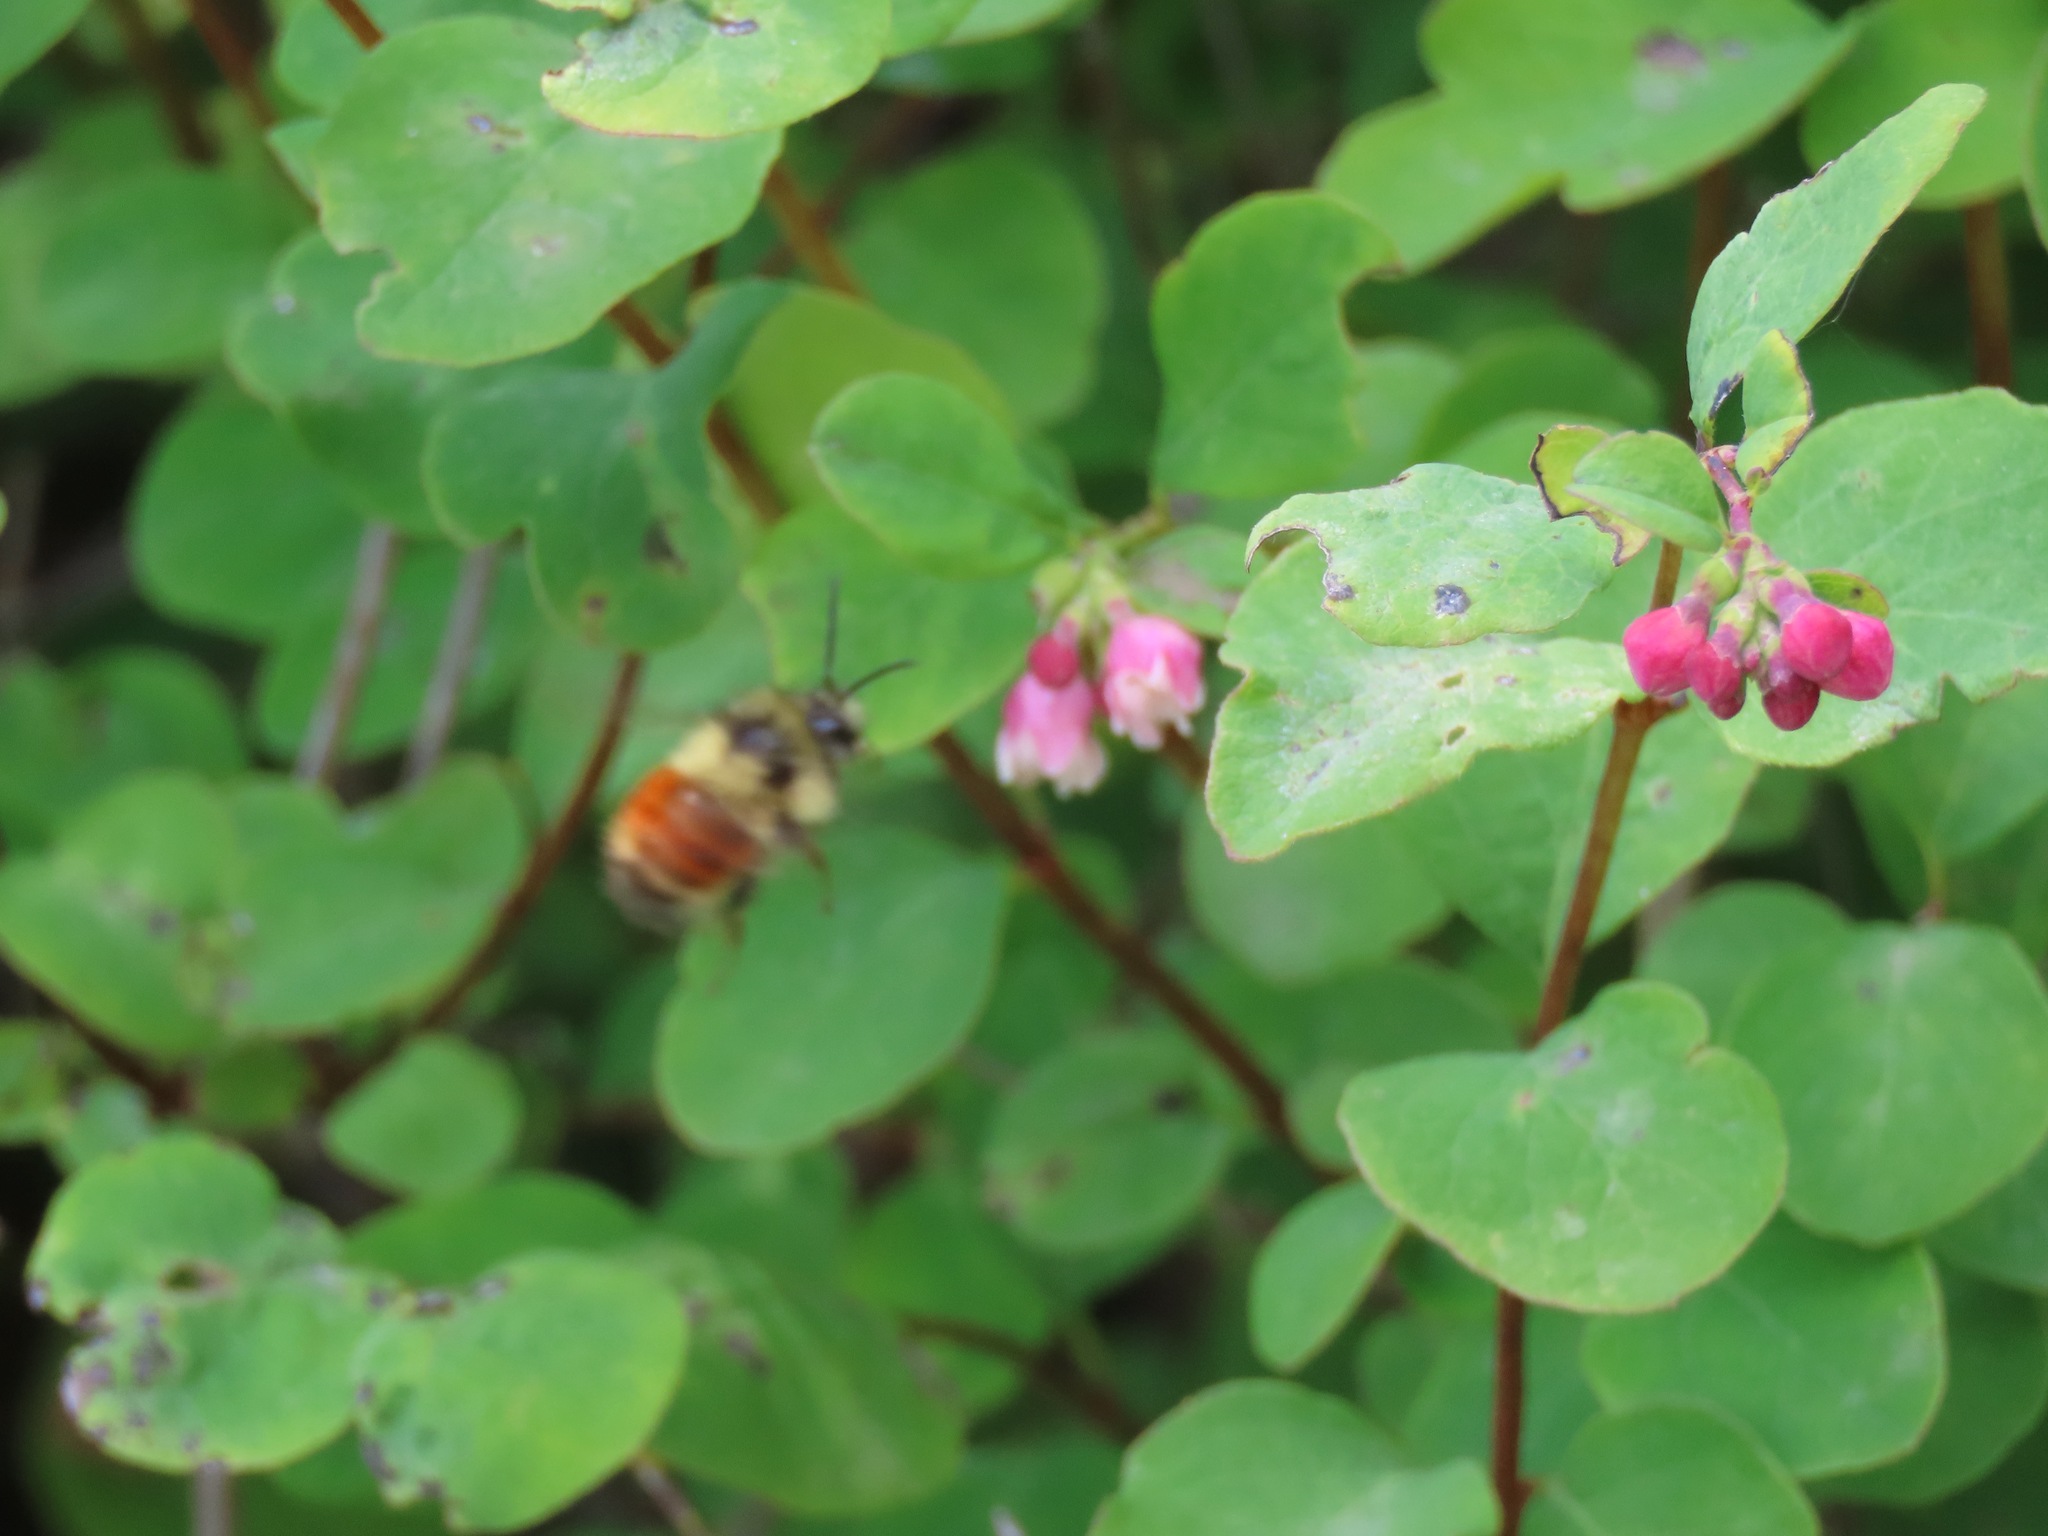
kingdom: Animalia
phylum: Arthropoda
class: Insecta
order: Hymenoptera
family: Apidae
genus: Bombus
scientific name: Bombus melanopygus
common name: Black tail bumble bee
